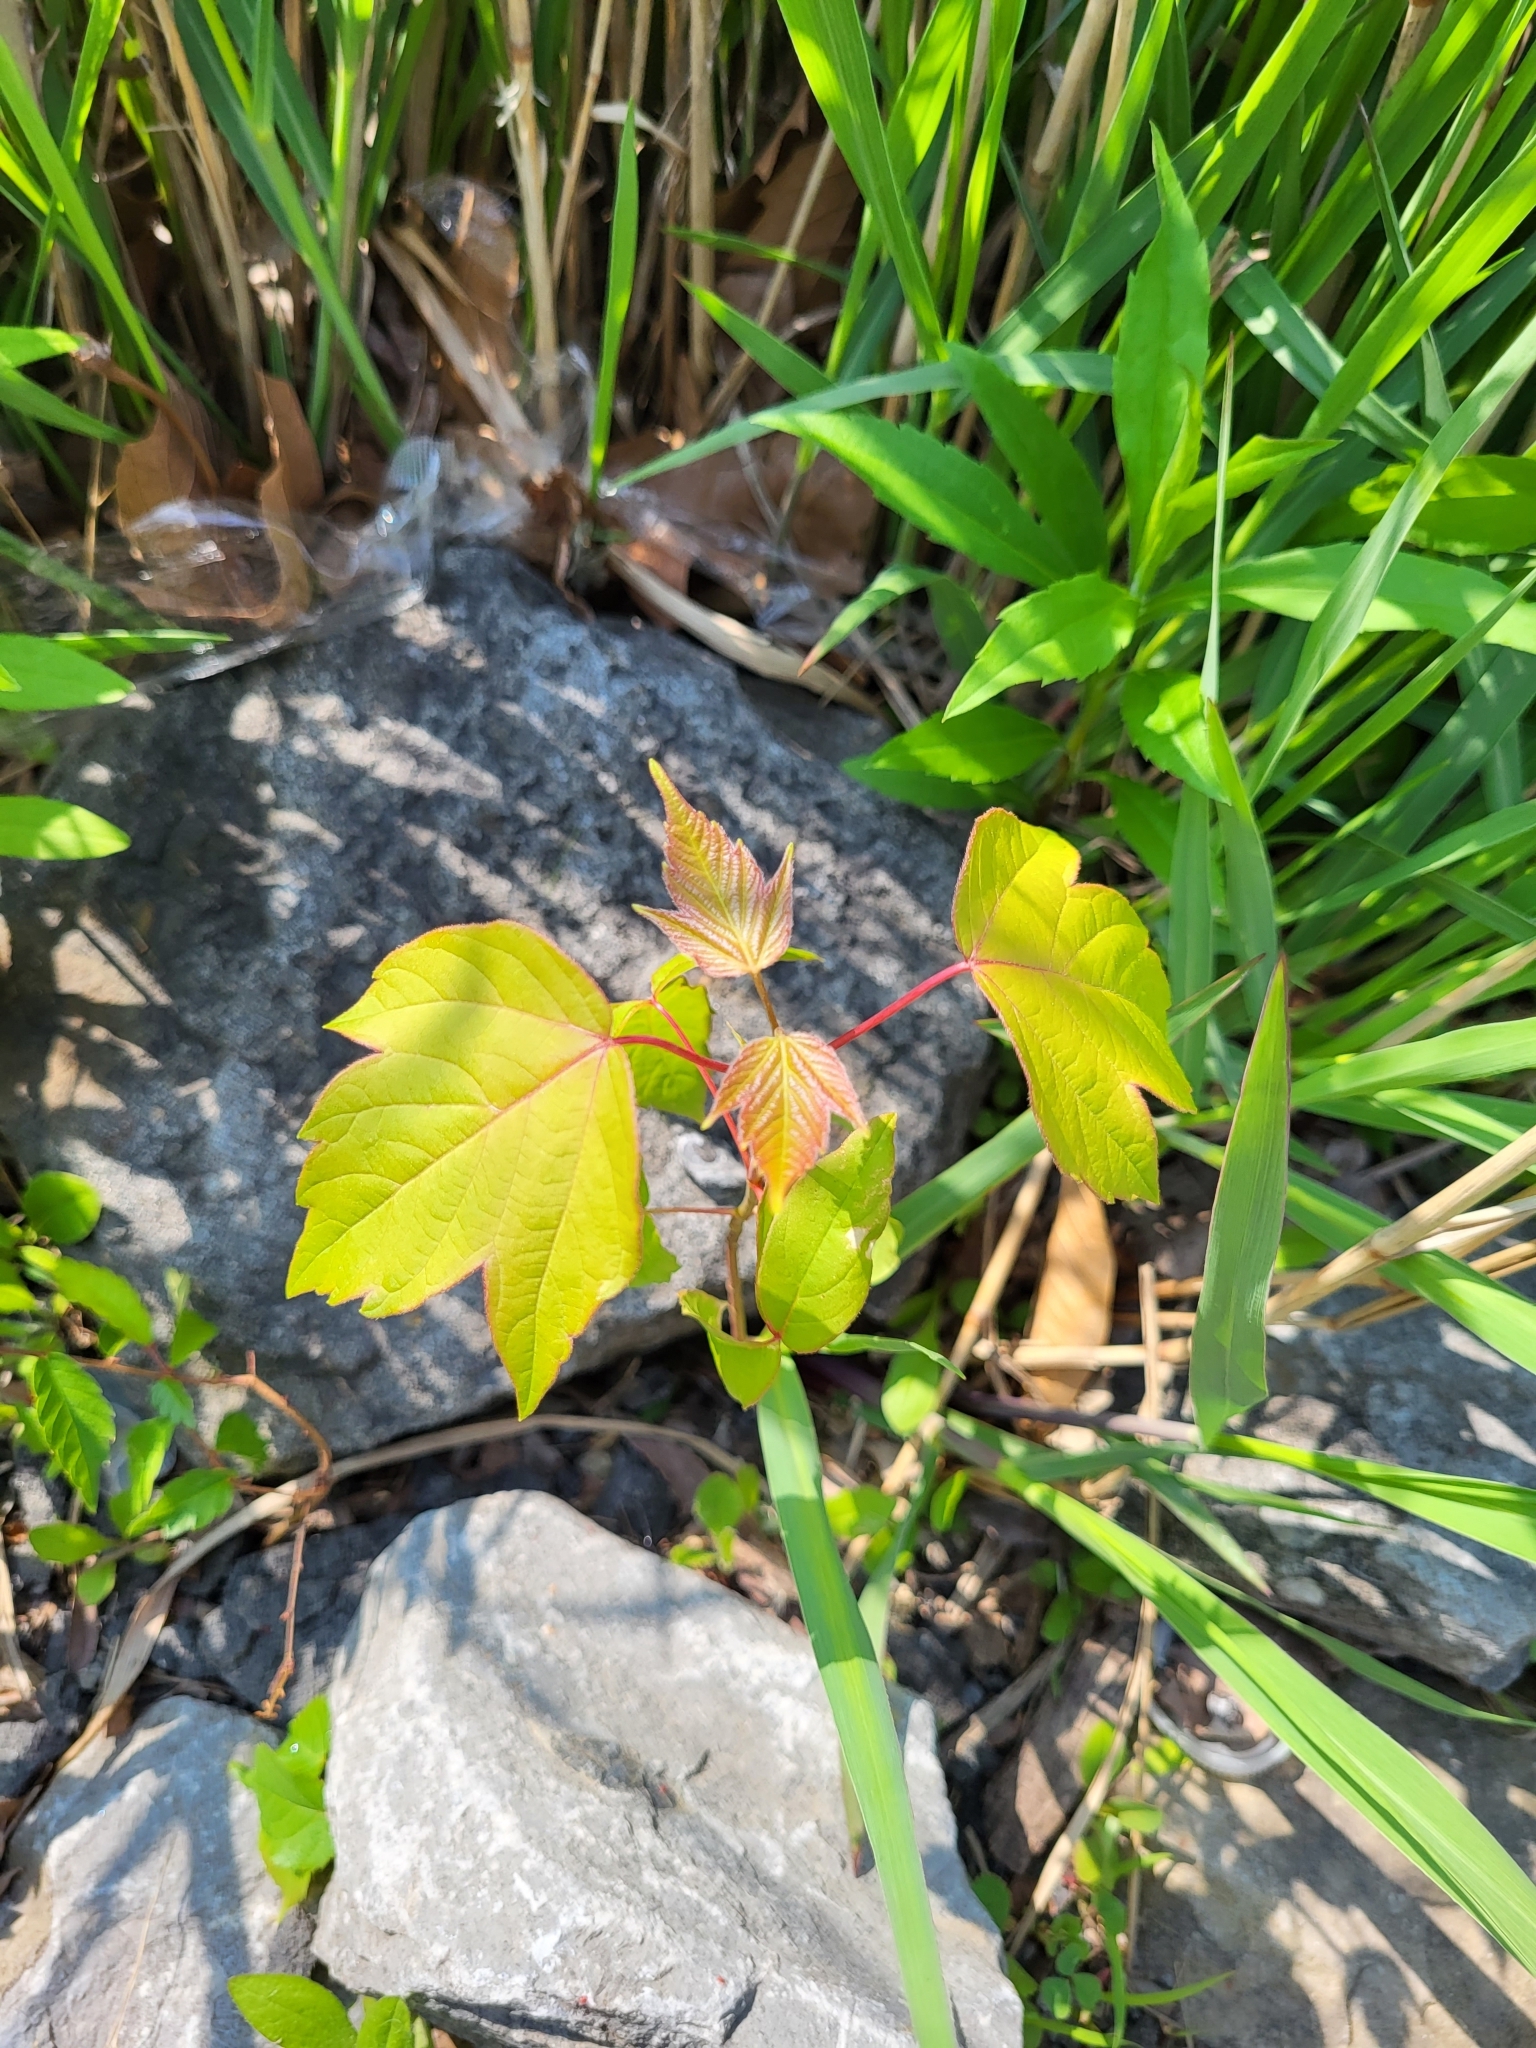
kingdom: Plantae
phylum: Tracheophyta
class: Magnoliopsida
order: Sapindales
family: Sapindaceae
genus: Acer
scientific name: Acer rubrum
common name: Red maple
